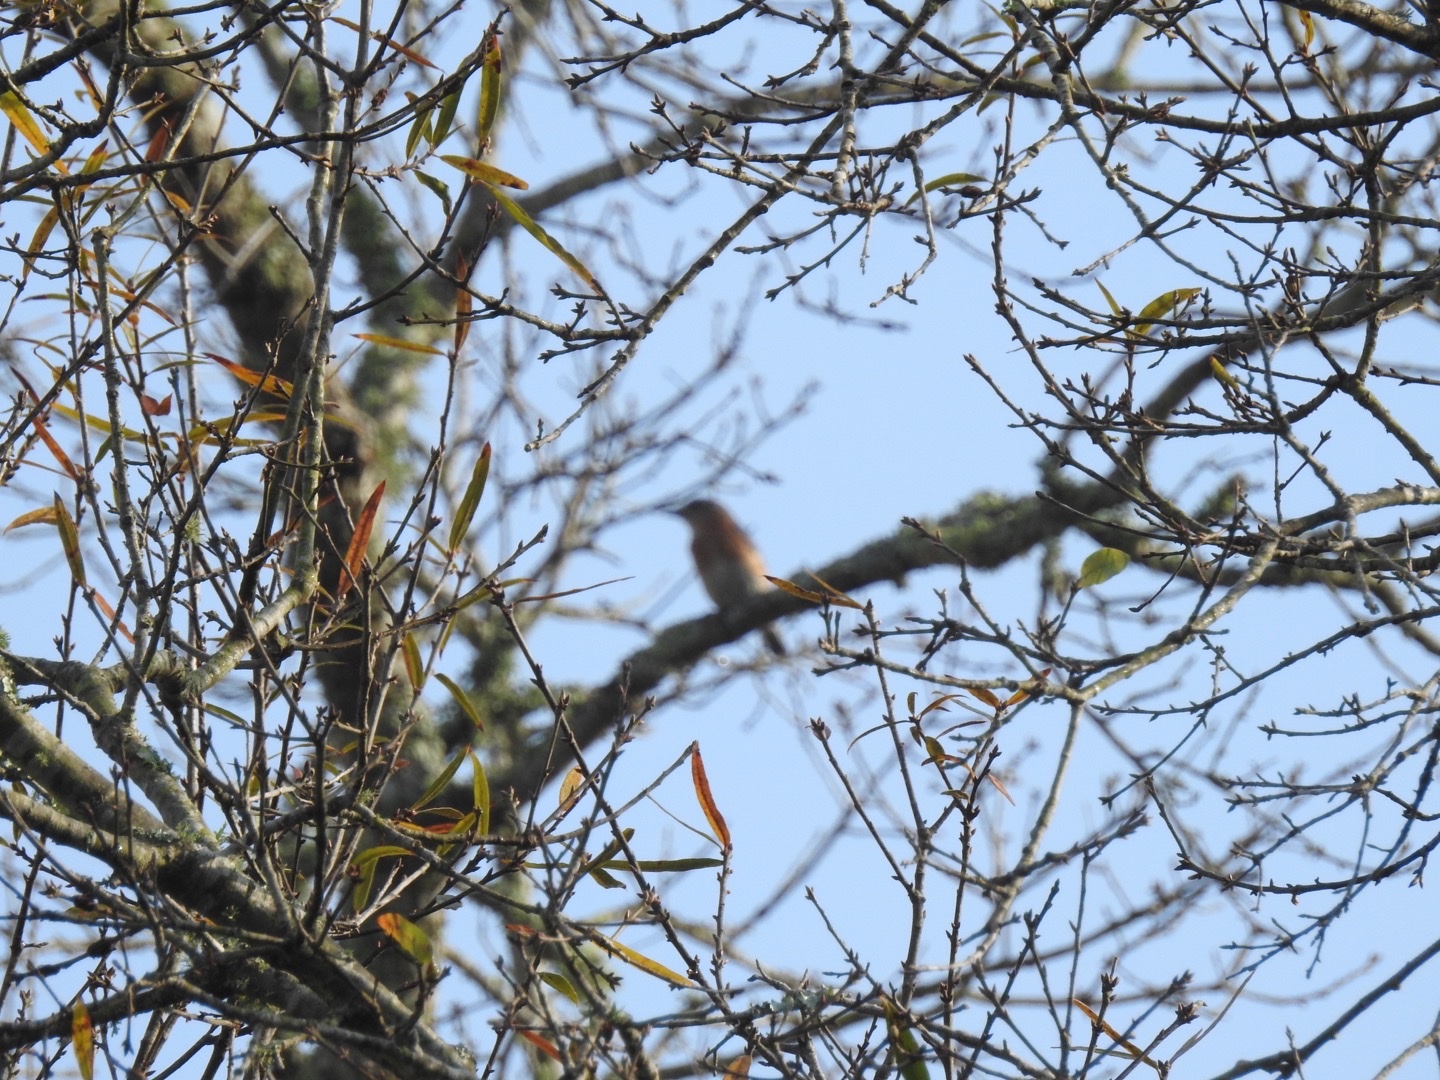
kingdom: Animalia
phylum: Chordata
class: Aves
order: Passeriformes
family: Turdidae
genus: Sialia
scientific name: Sialia sialis
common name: Eastern bluebird
